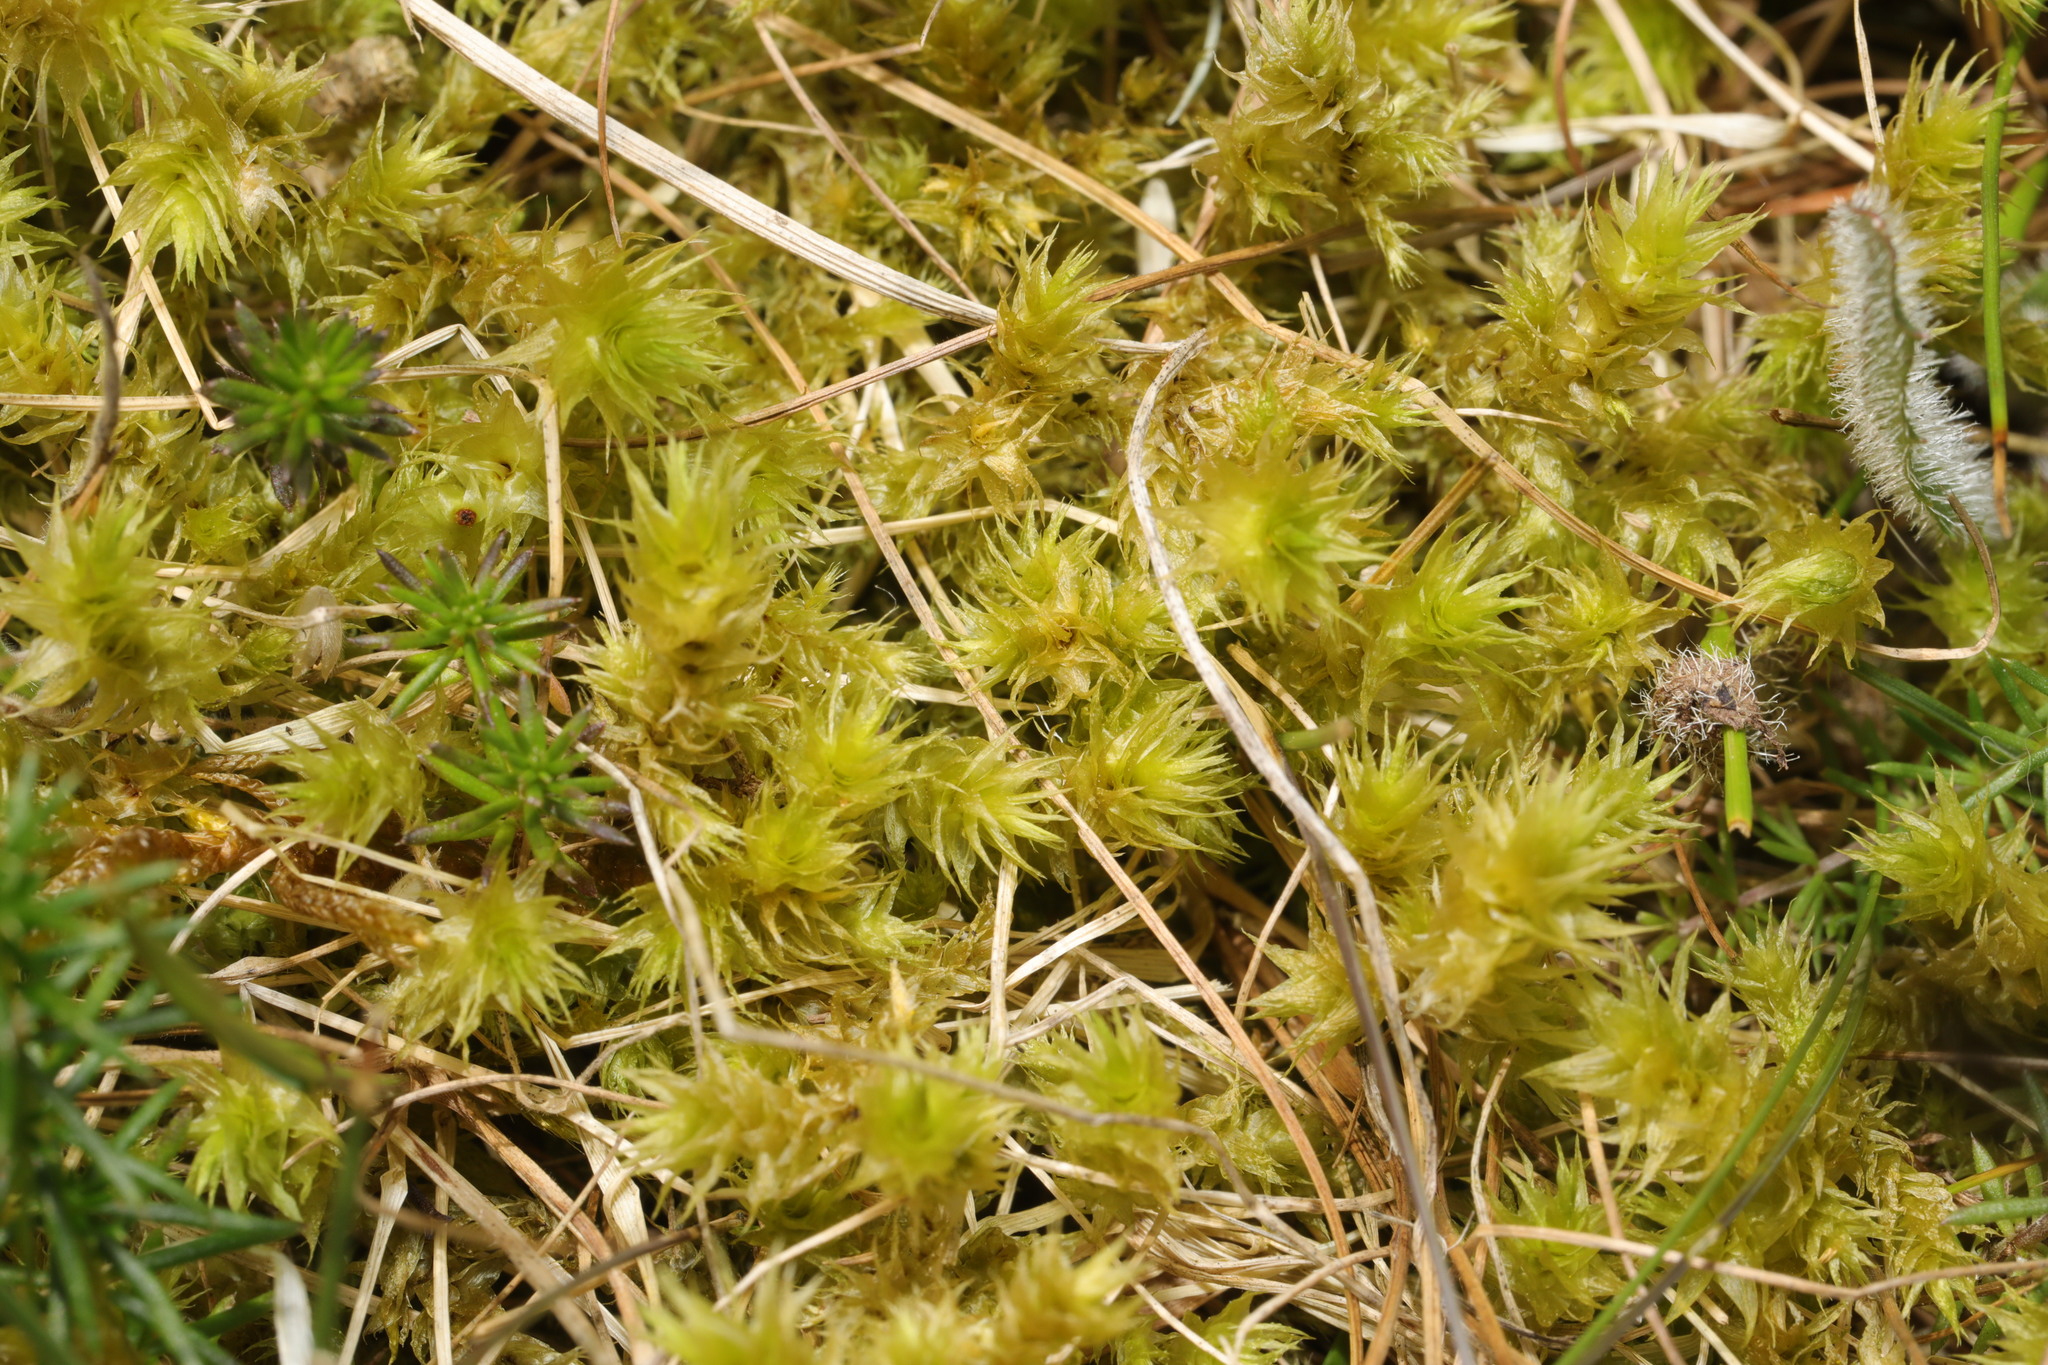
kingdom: Plantae
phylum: Bryophyta
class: Bryopsida
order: Hypnales
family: Hylocomiaceae
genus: Hylocomiadelphus
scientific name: Hylocomiadelphus triquetrus
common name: Rough goose neck moss
